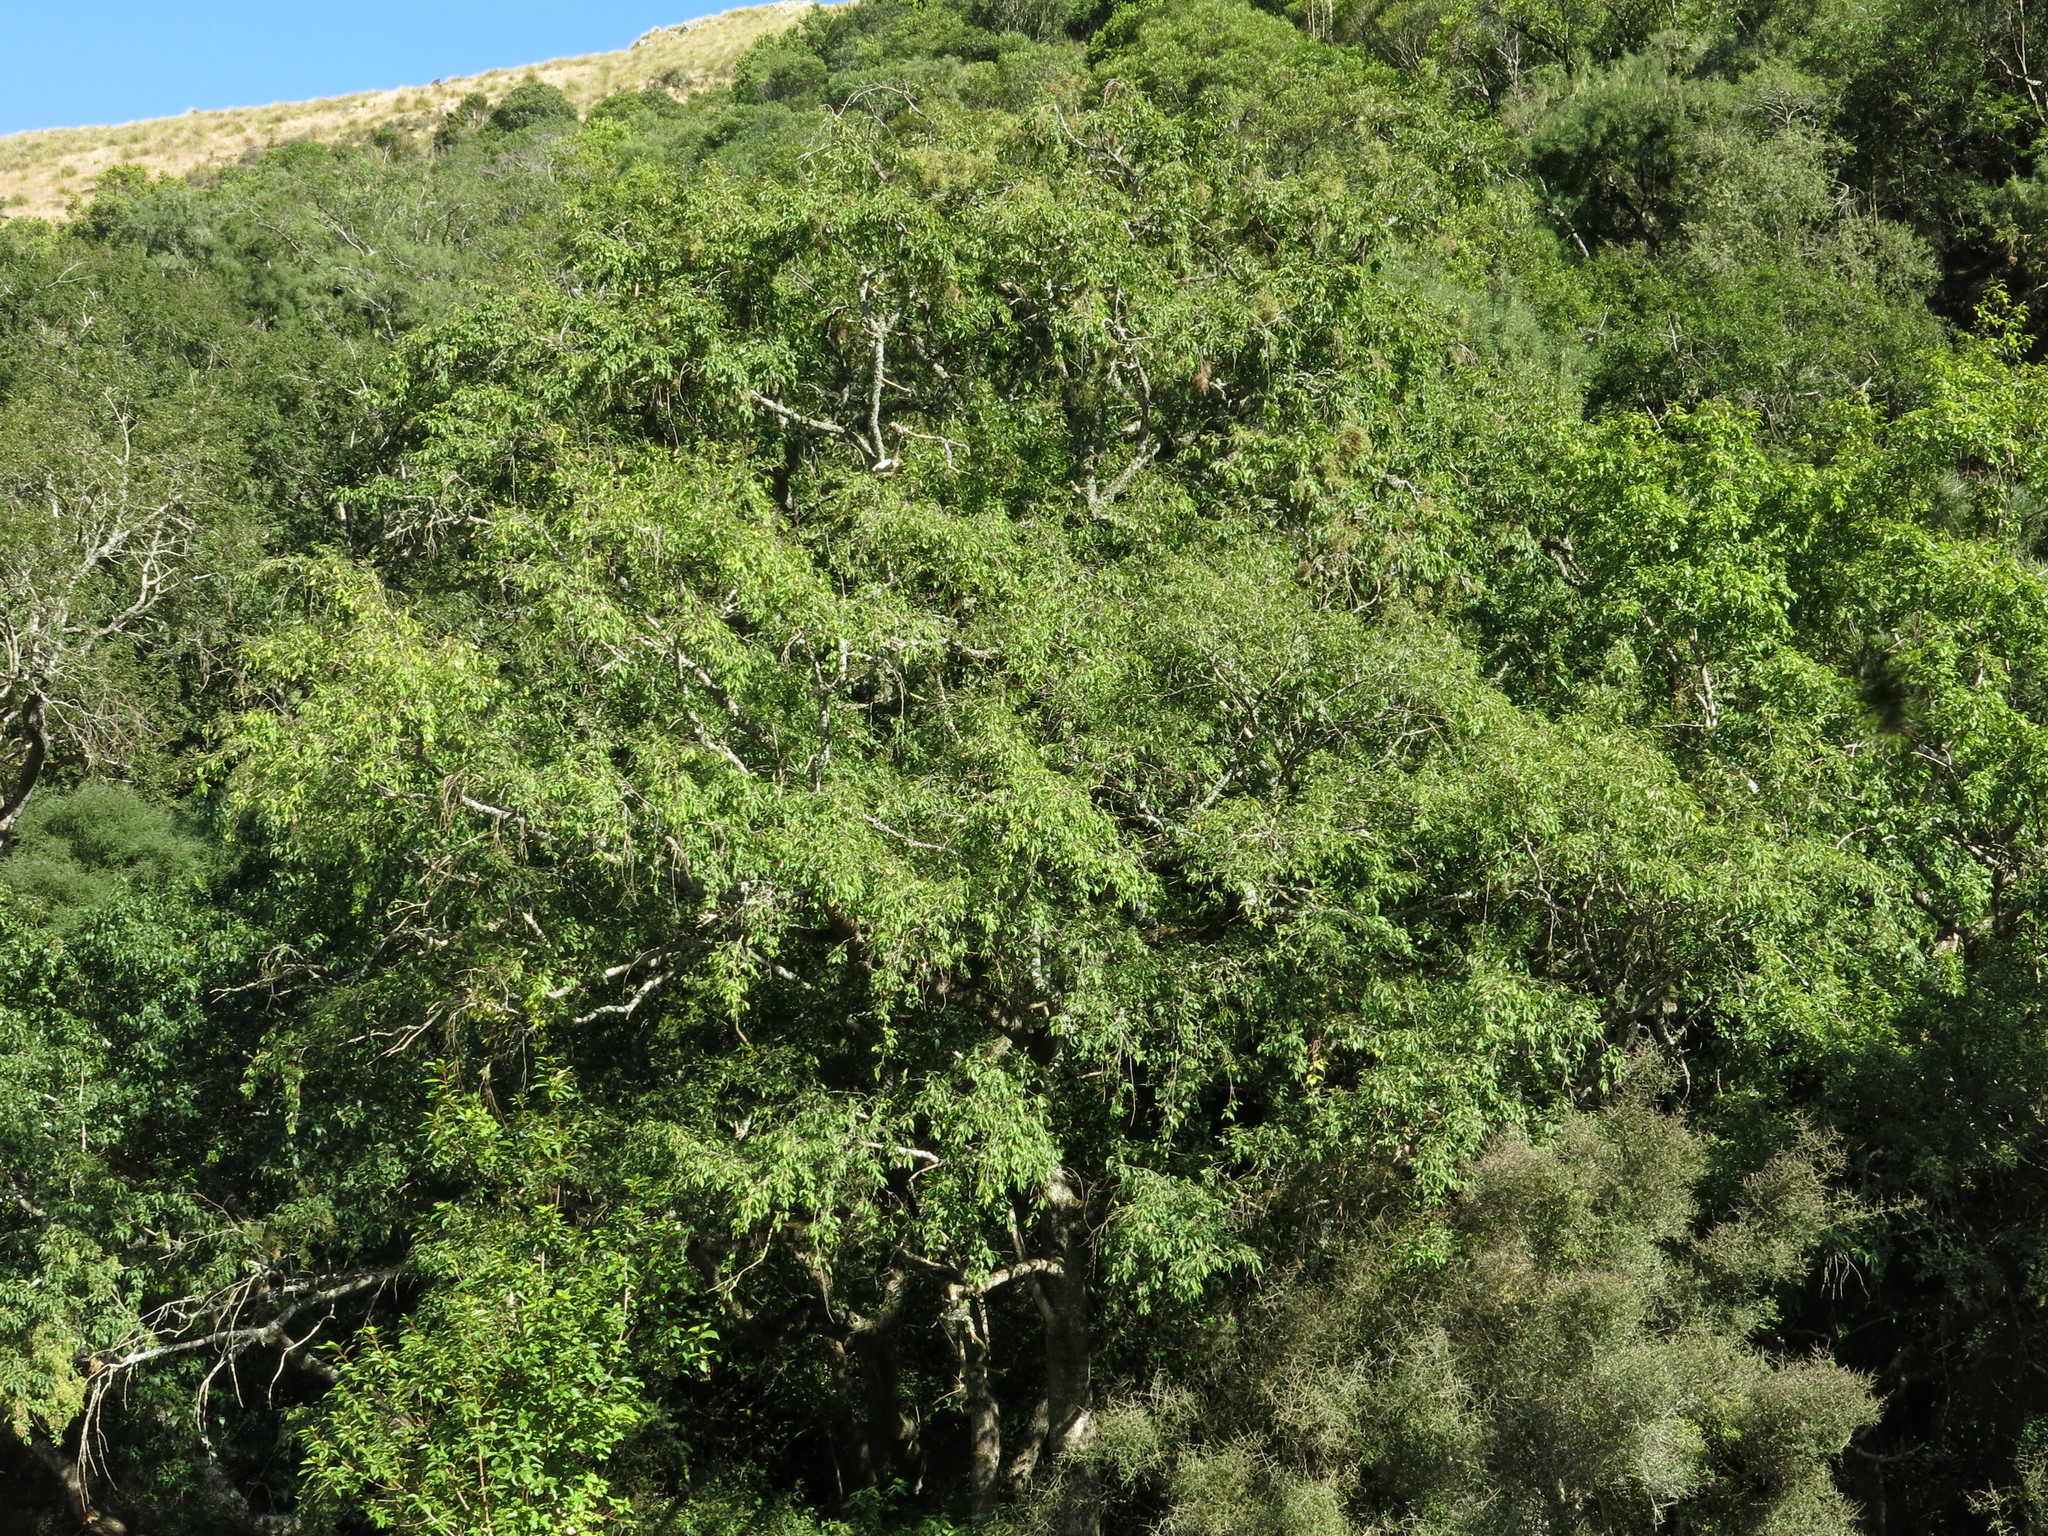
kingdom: Plantae
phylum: Tracheophyta
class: Magnoliopsida
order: Malvales
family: Malvaceae
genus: Plagianthus
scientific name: Plagianthus regius
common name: Manatu
